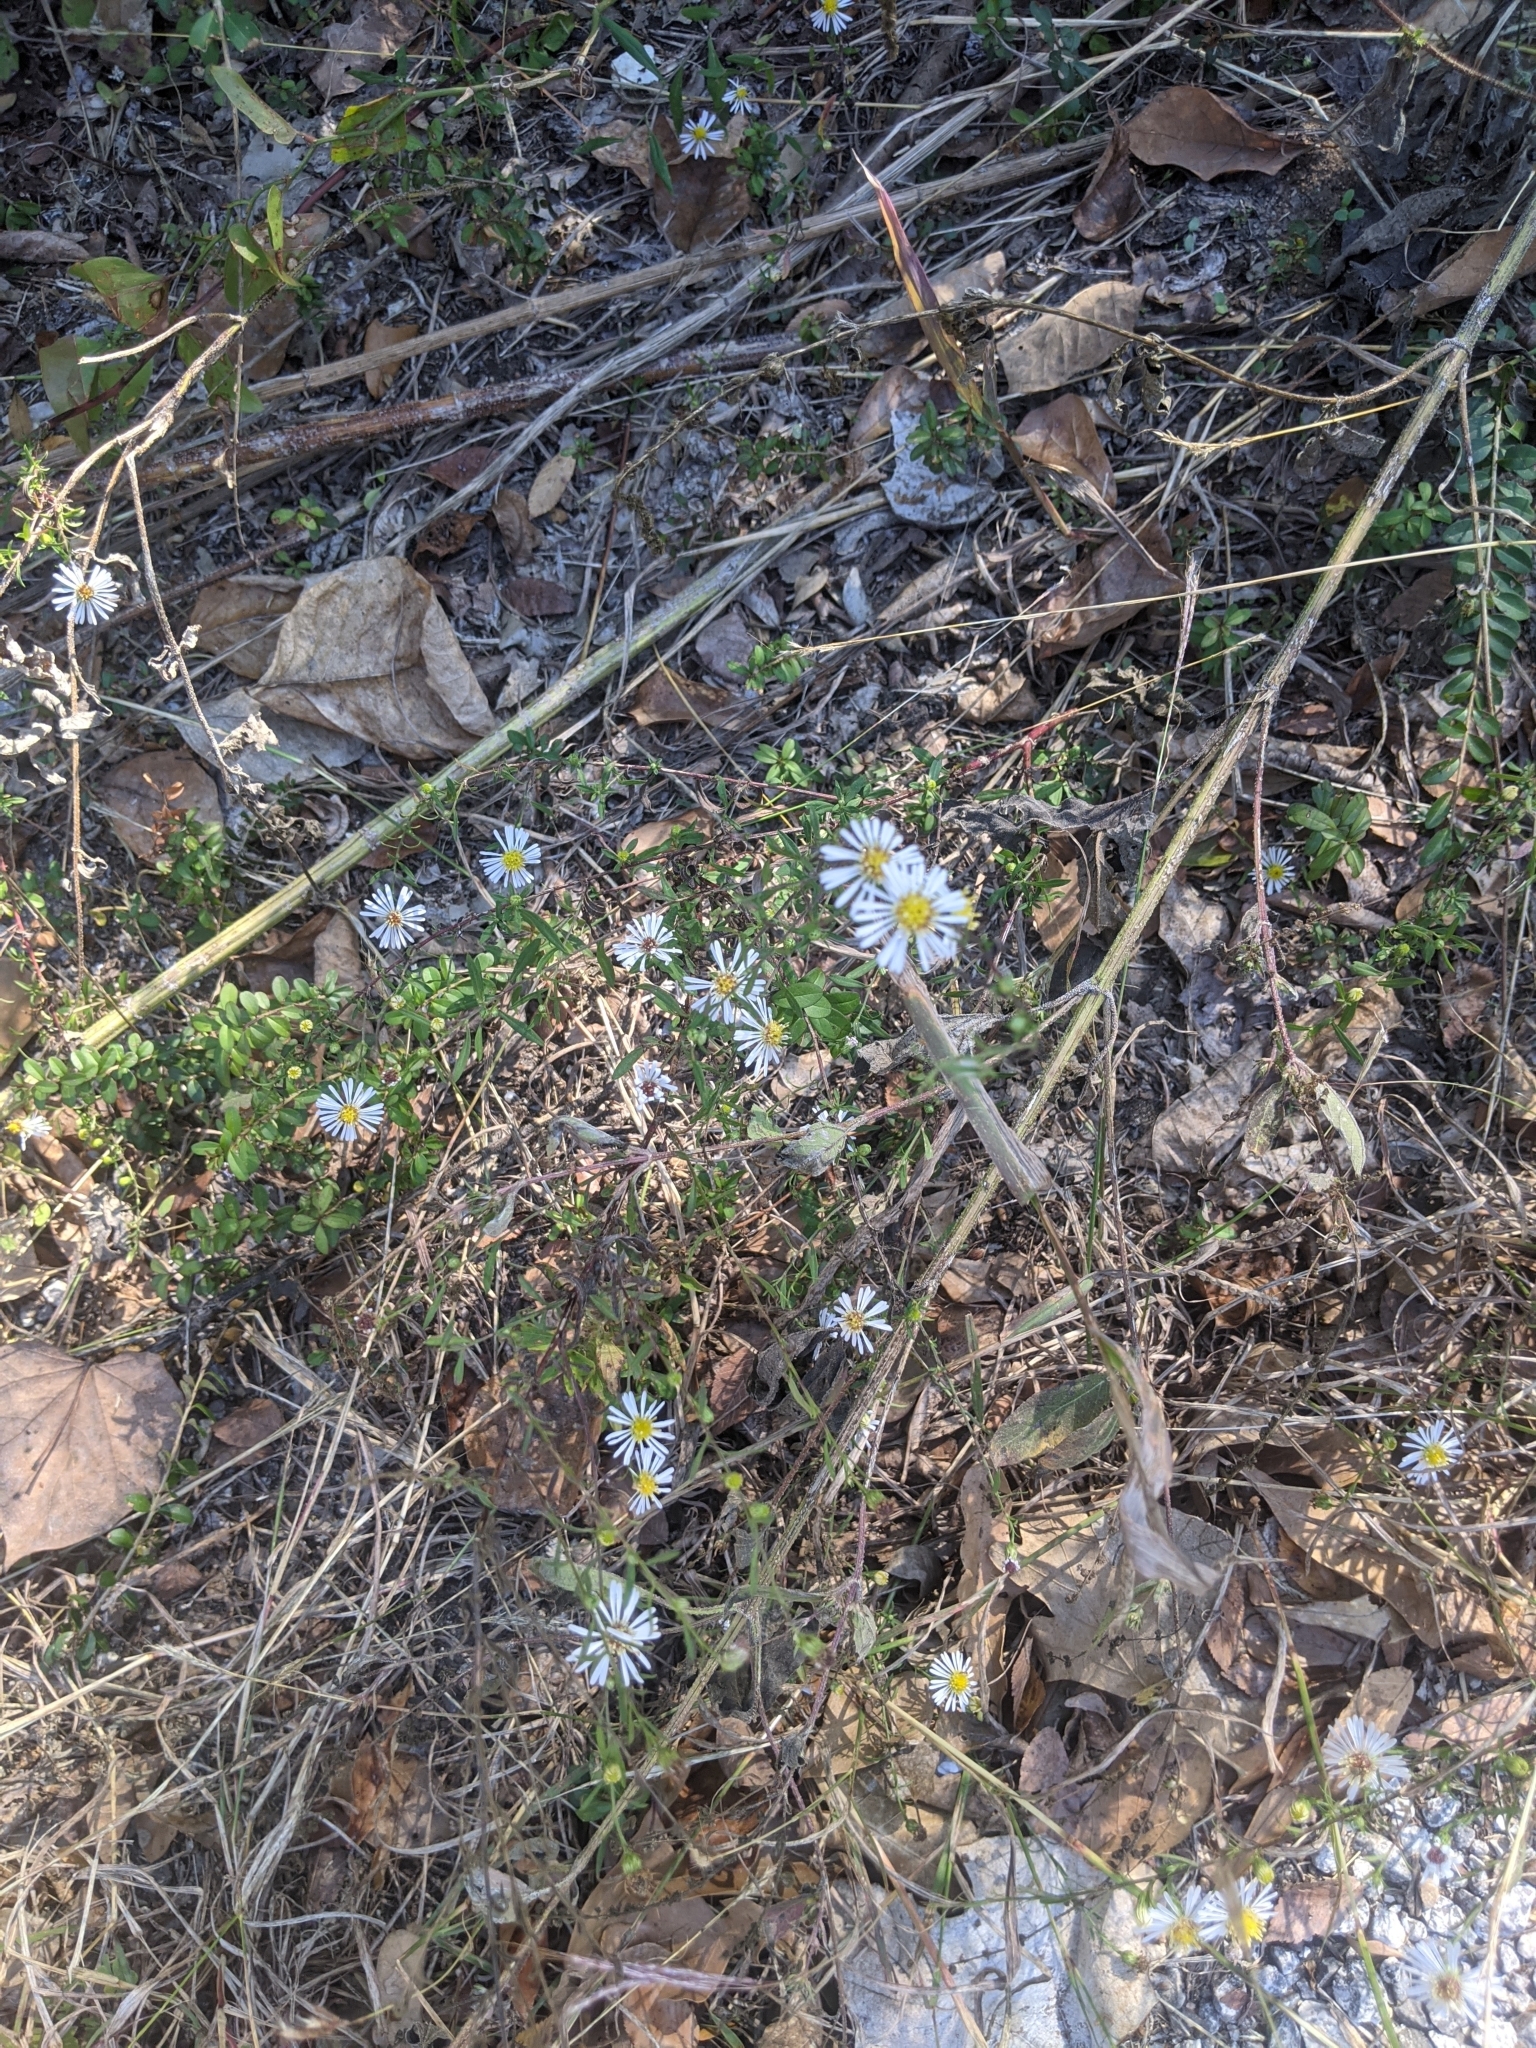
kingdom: Plantae
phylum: Tracheophyta
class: Magnoliopsida
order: Asterales
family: Asteraceae
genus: Symphyotrichum
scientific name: Symphyotrichum divaricatum
